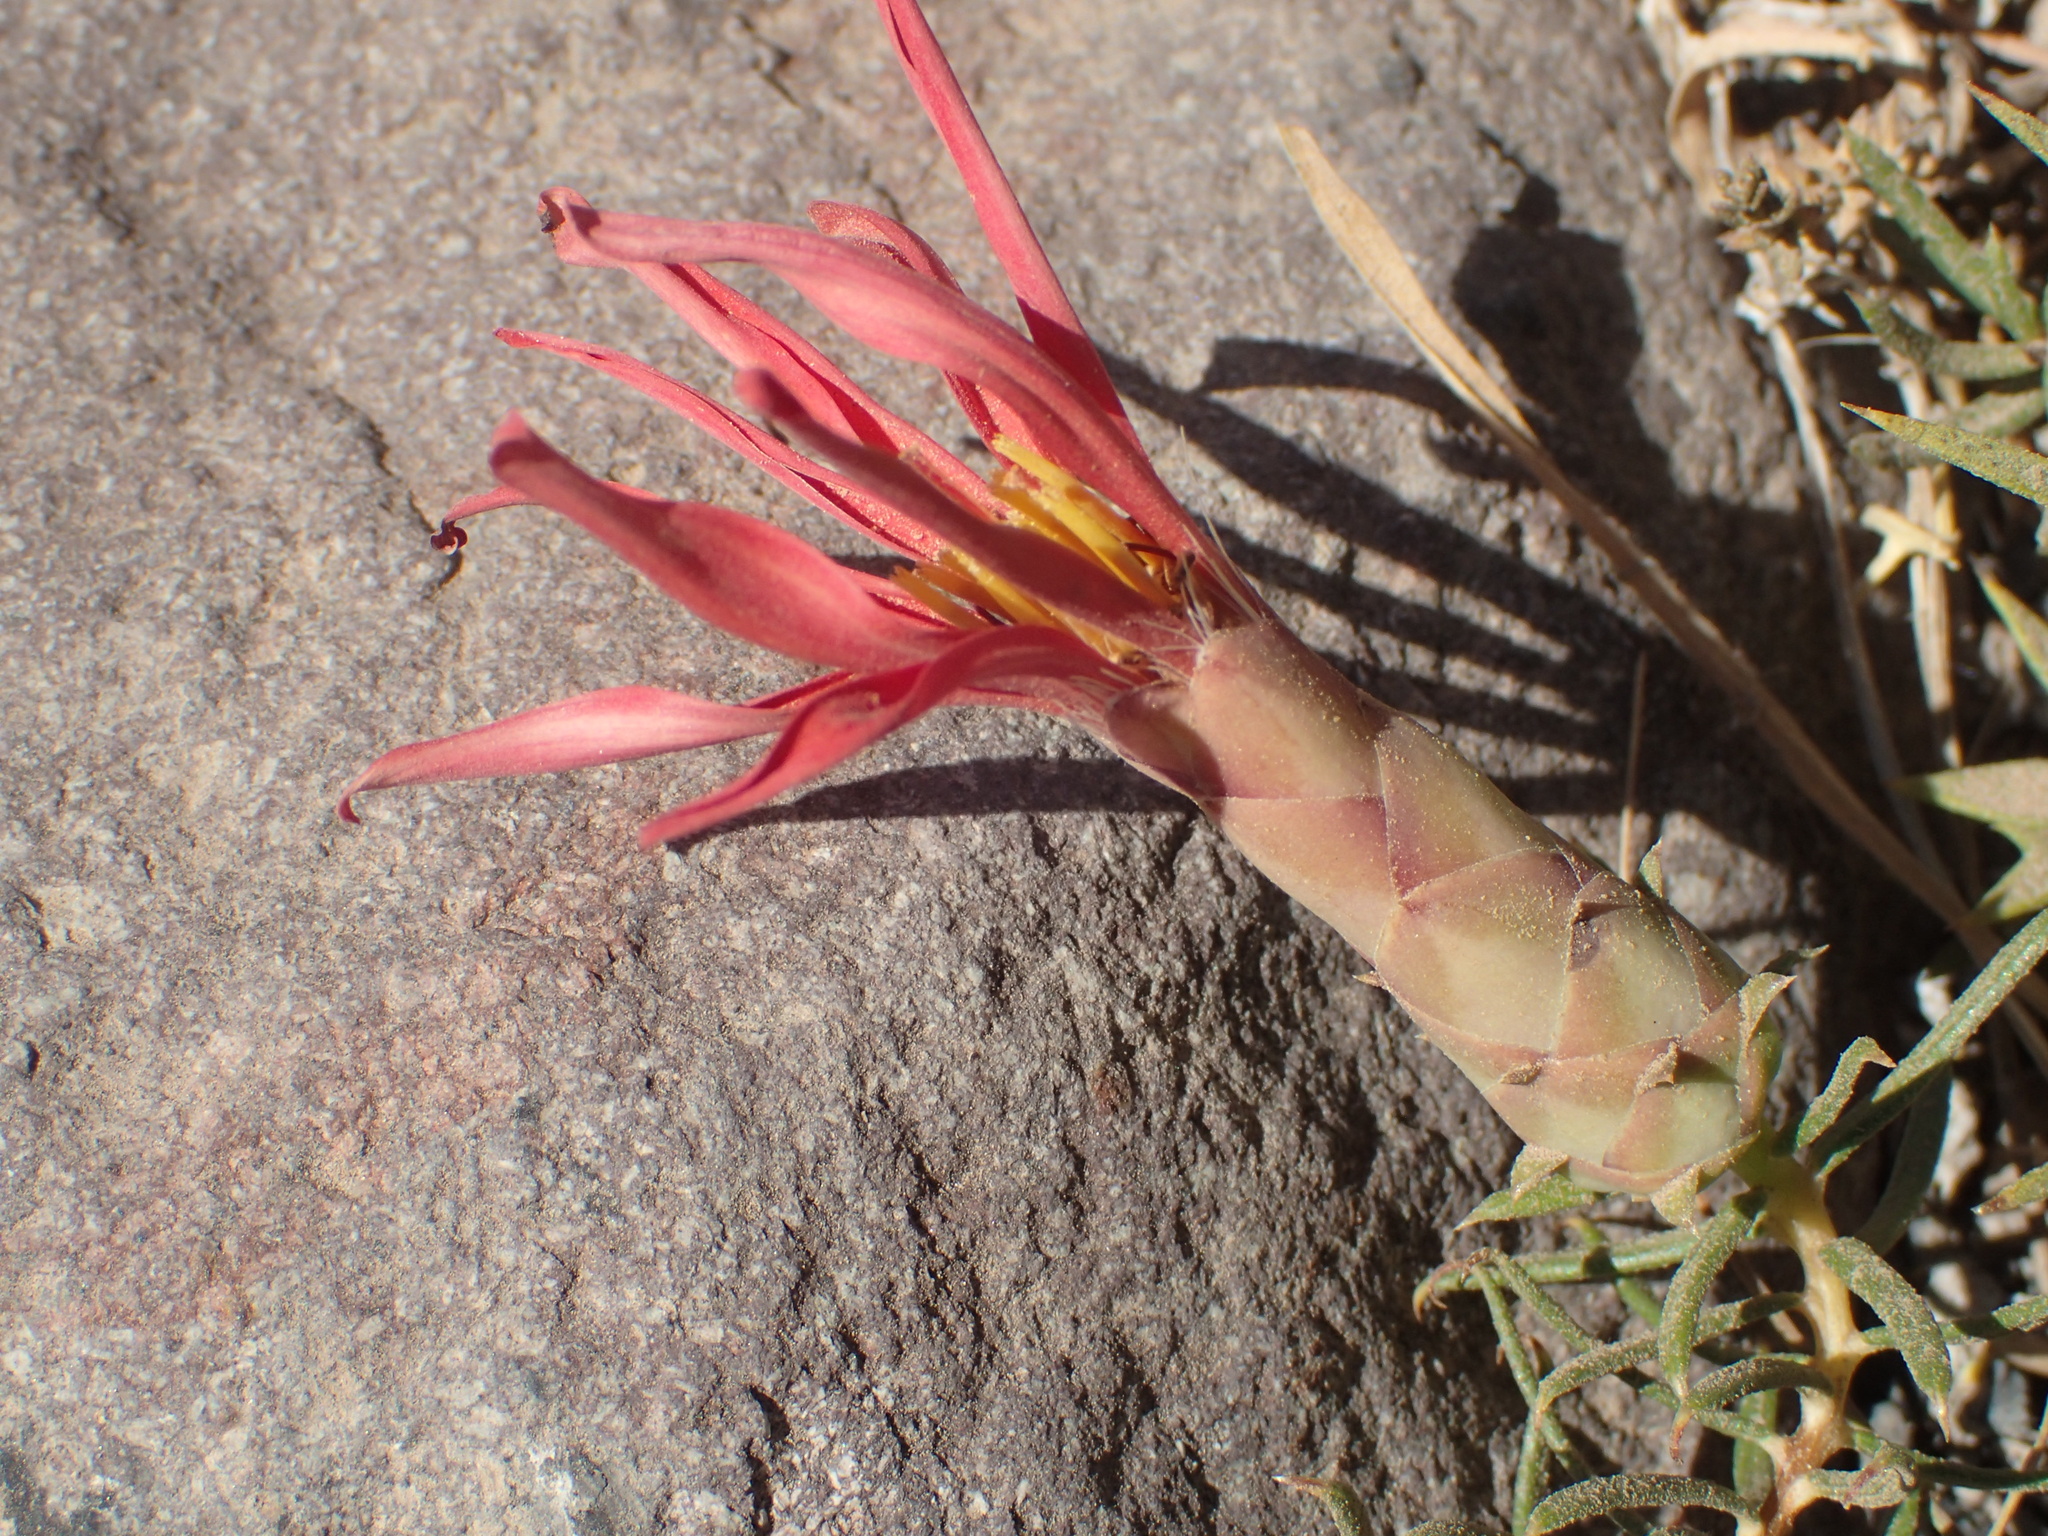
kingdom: Plantae
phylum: Tracheophyta
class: Magnoliopsida
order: Asterales
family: Asteraceae
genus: Mutisia
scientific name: Mutisia subulata
